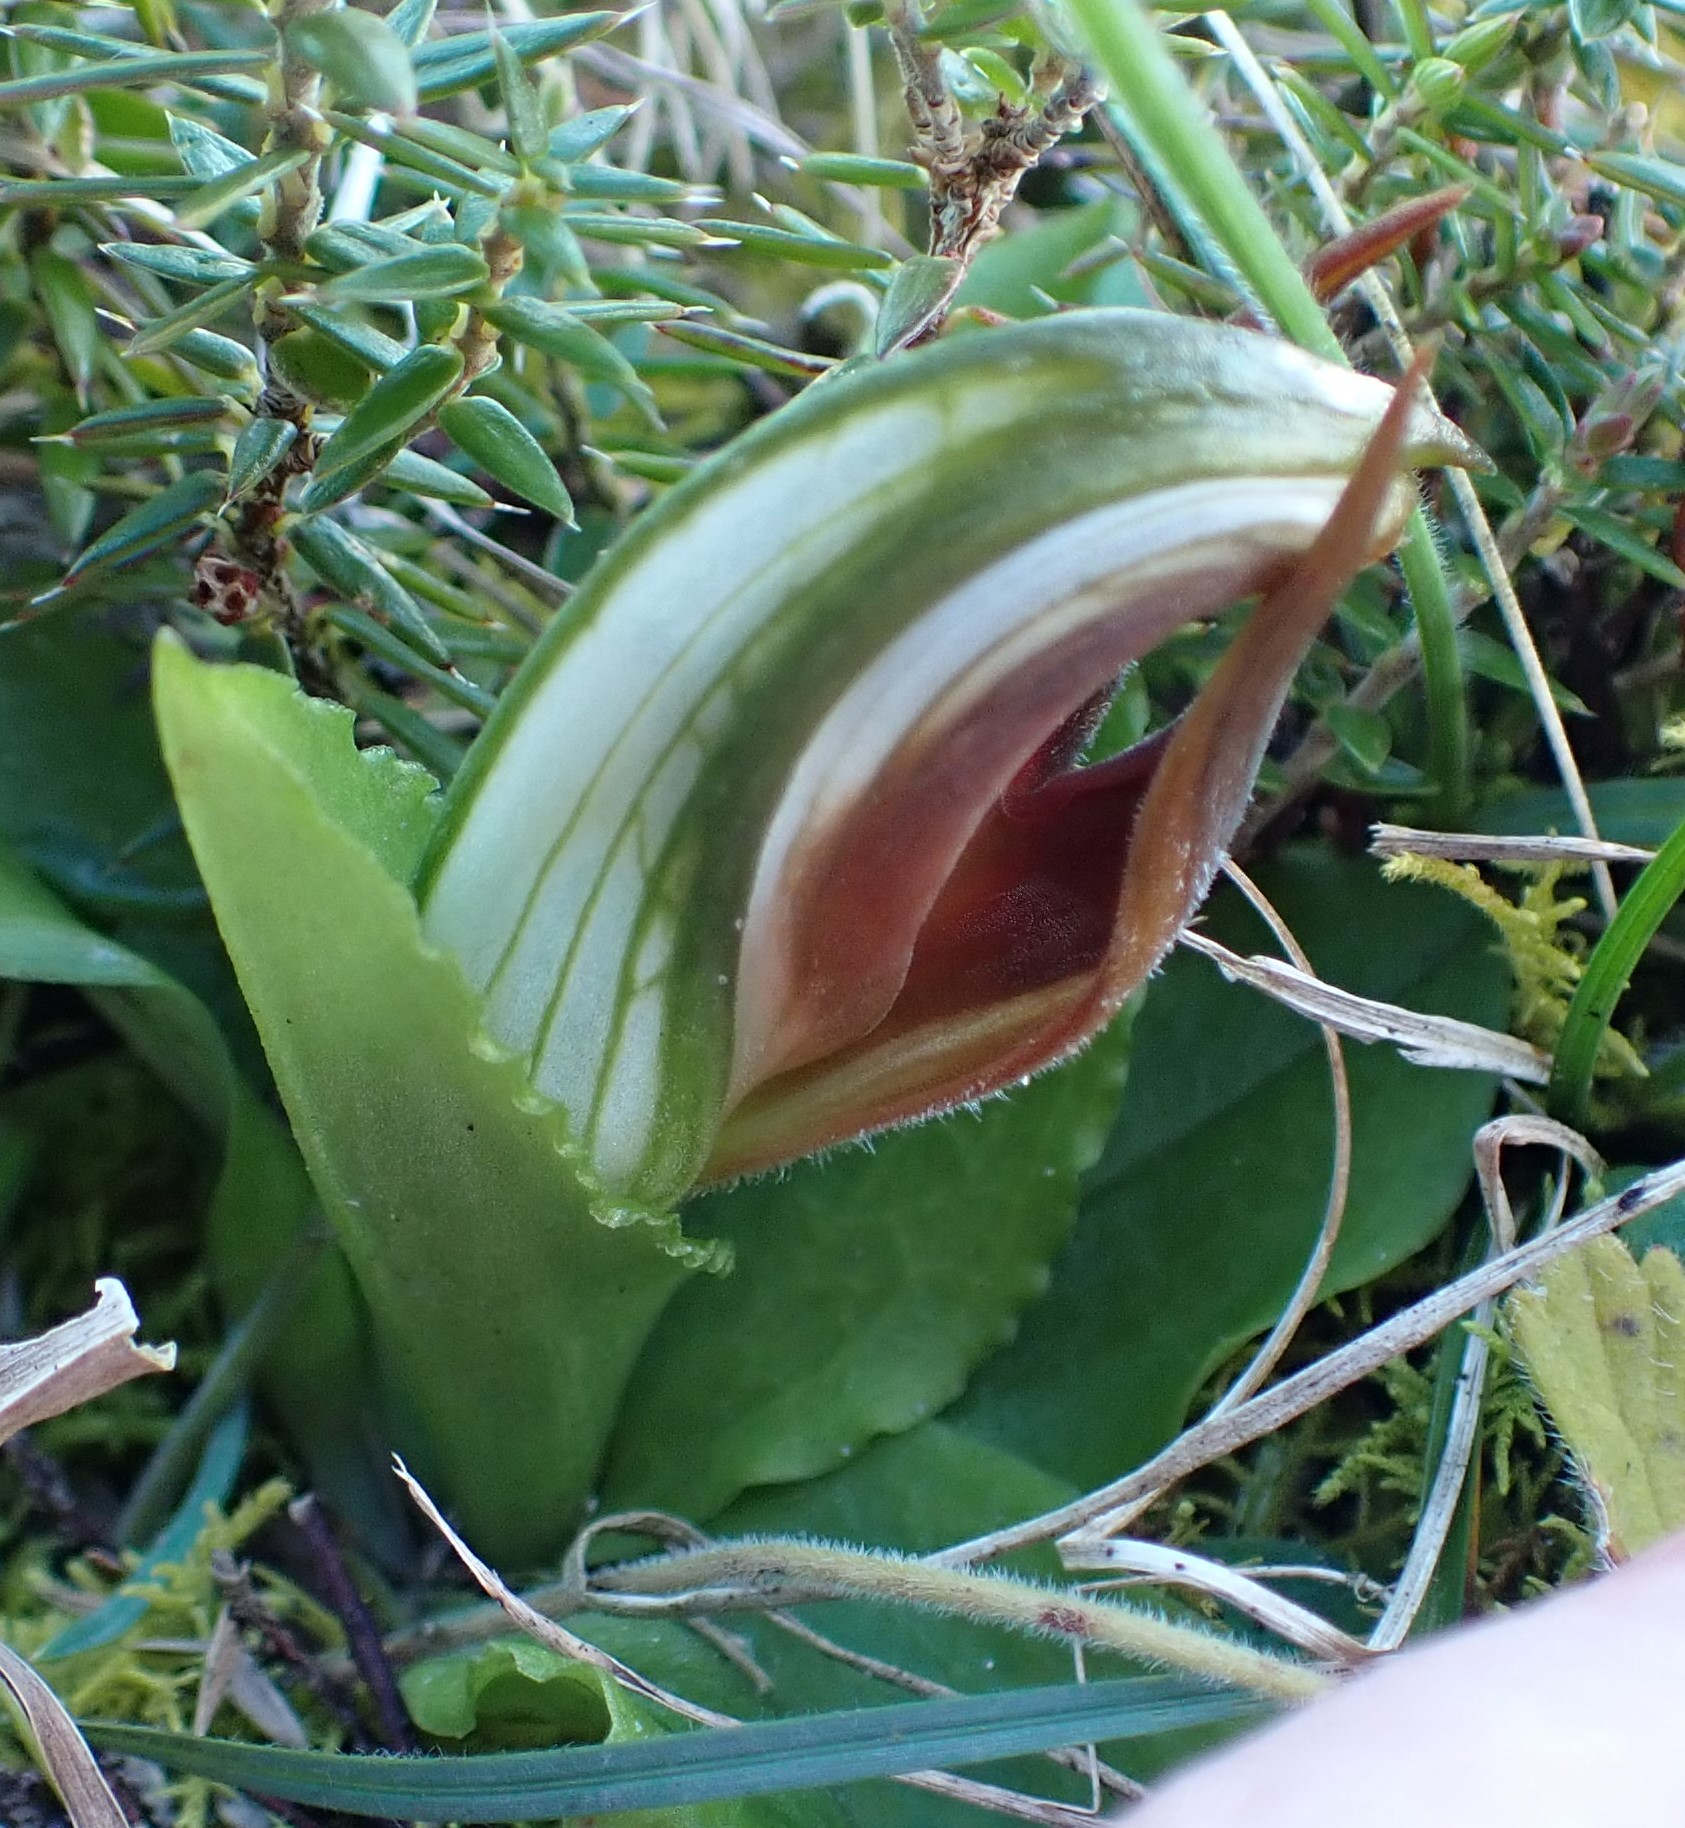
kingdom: Plantae
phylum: Tracheophyta
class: Liliopsida
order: Asparagales
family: Orchidaceae
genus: Pterostylis
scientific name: Pterostylis cucullata
